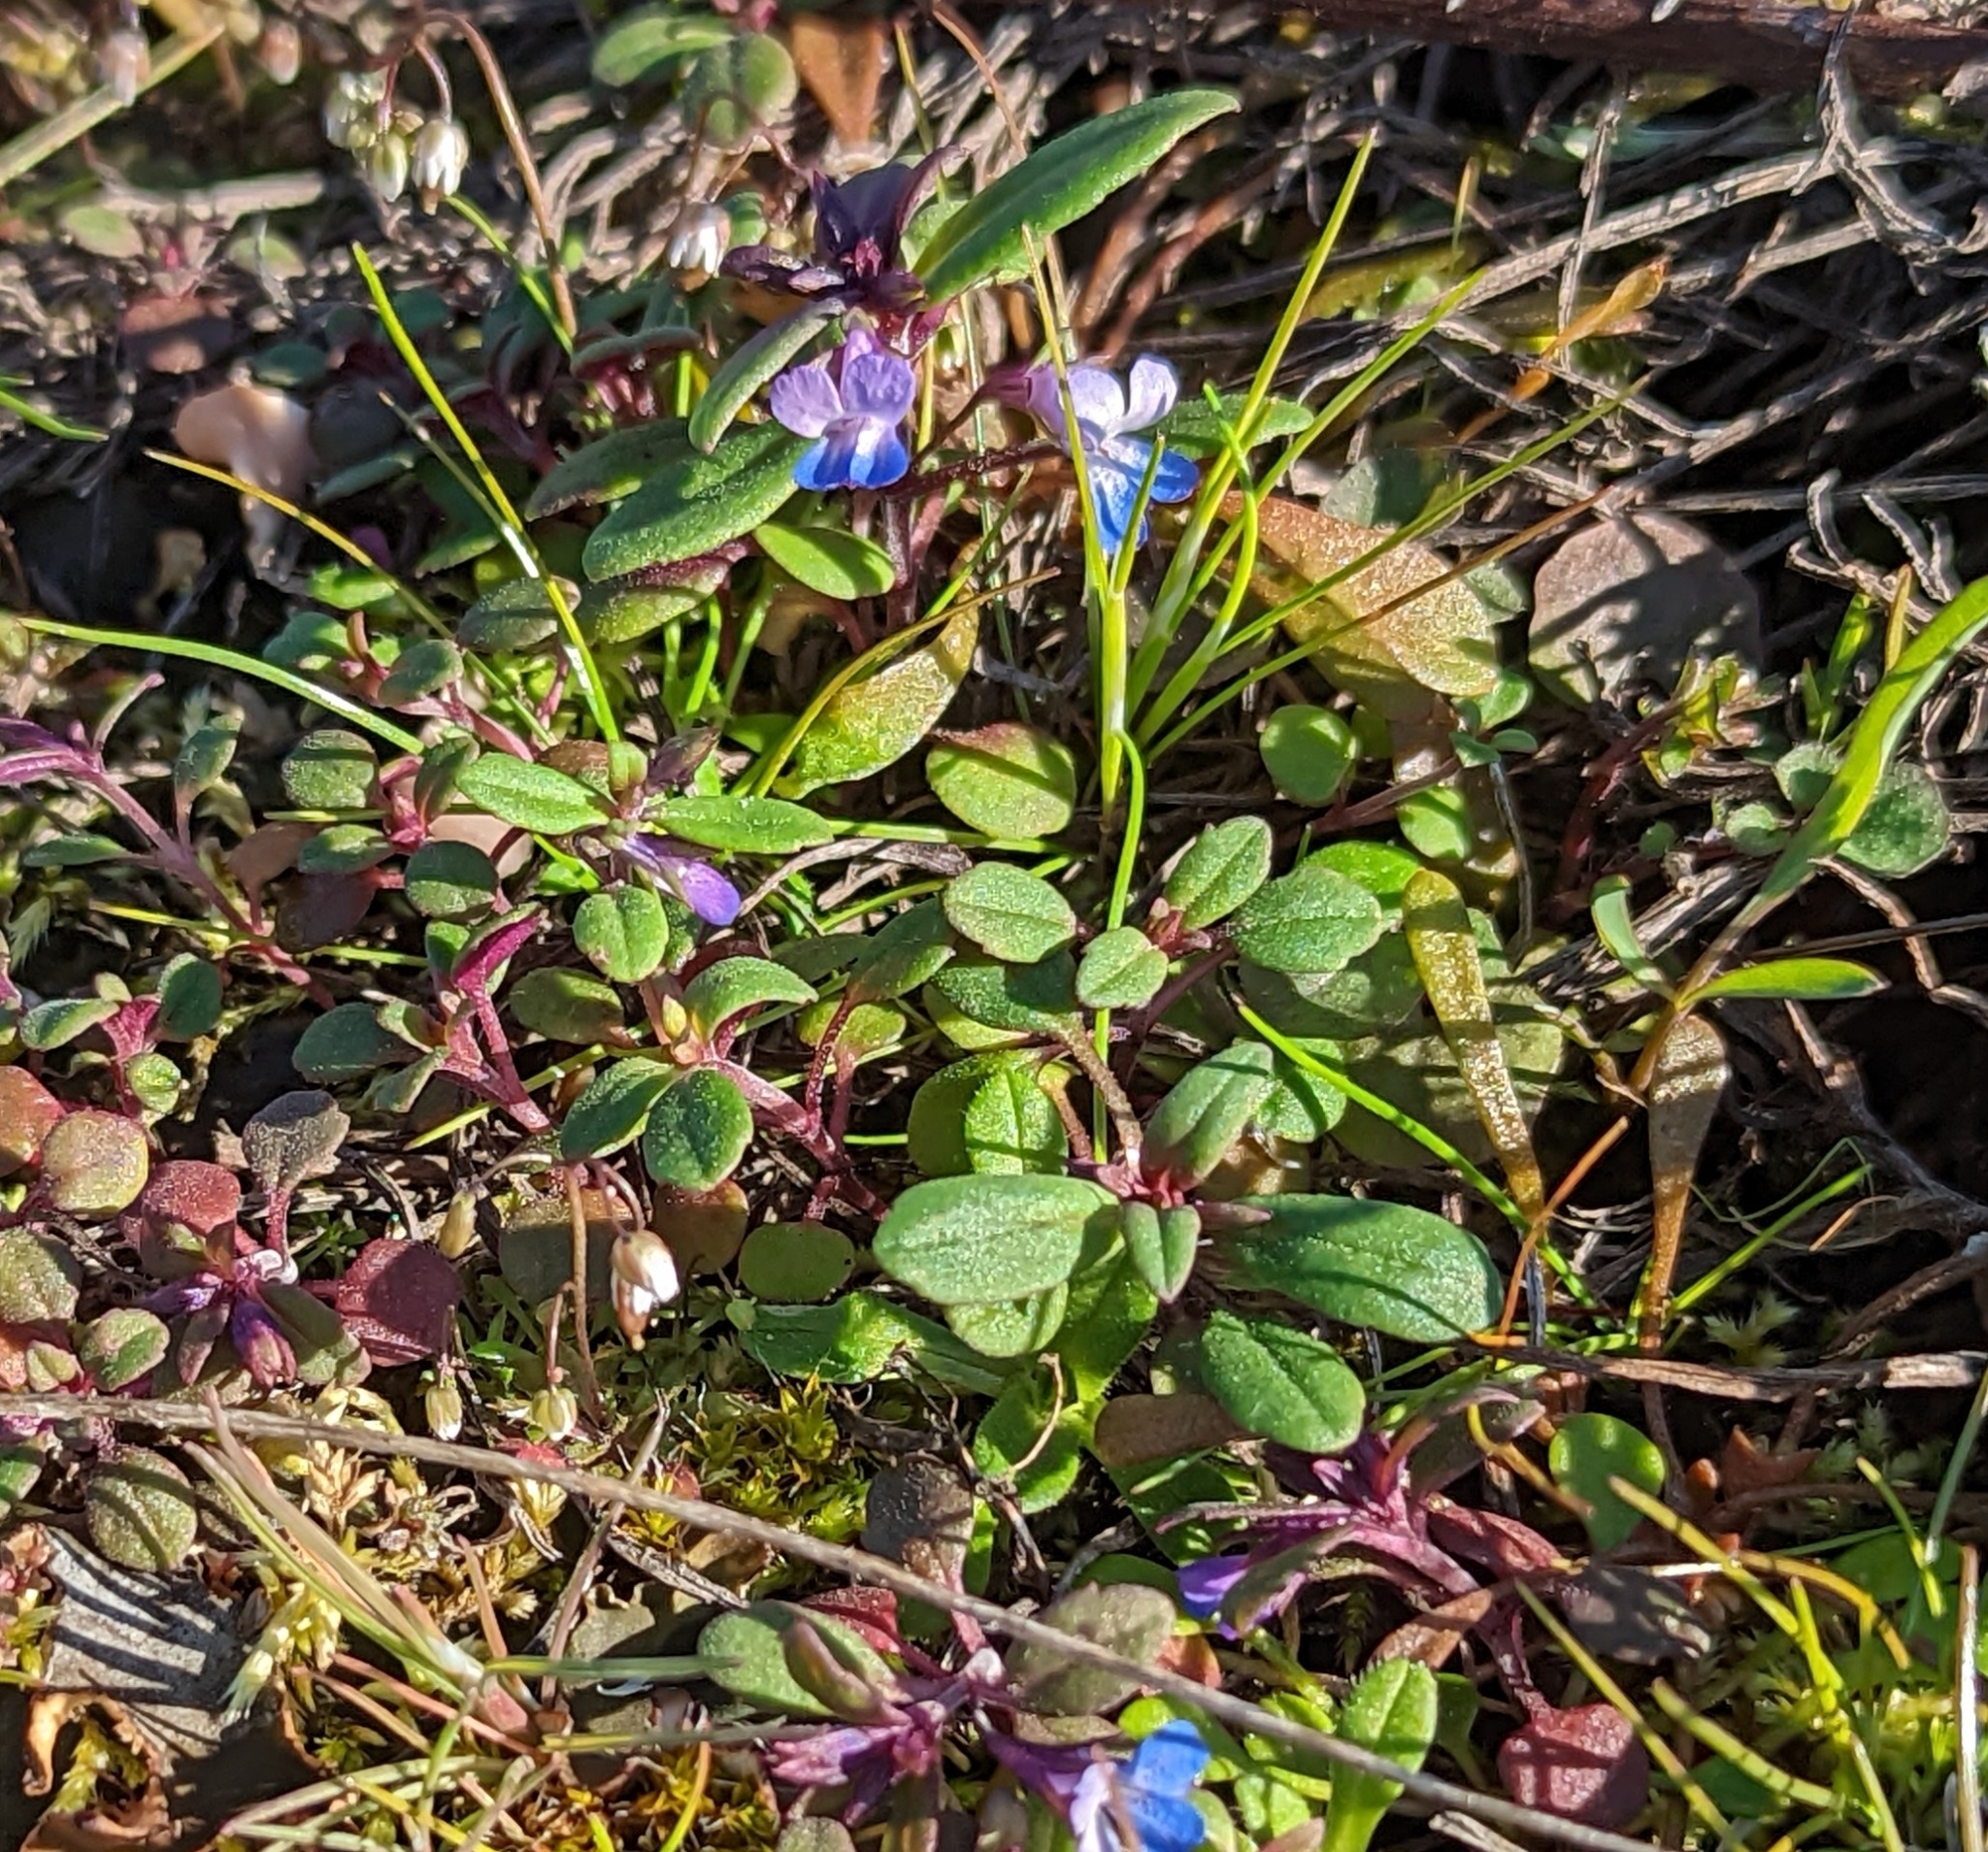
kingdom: Plantae
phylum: Tracheophyta
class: Magnoliopsida
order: Lamiales
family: Plantaginaceae
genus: Collinsia
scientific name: Collinsia parviflora
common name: Blue-lips
